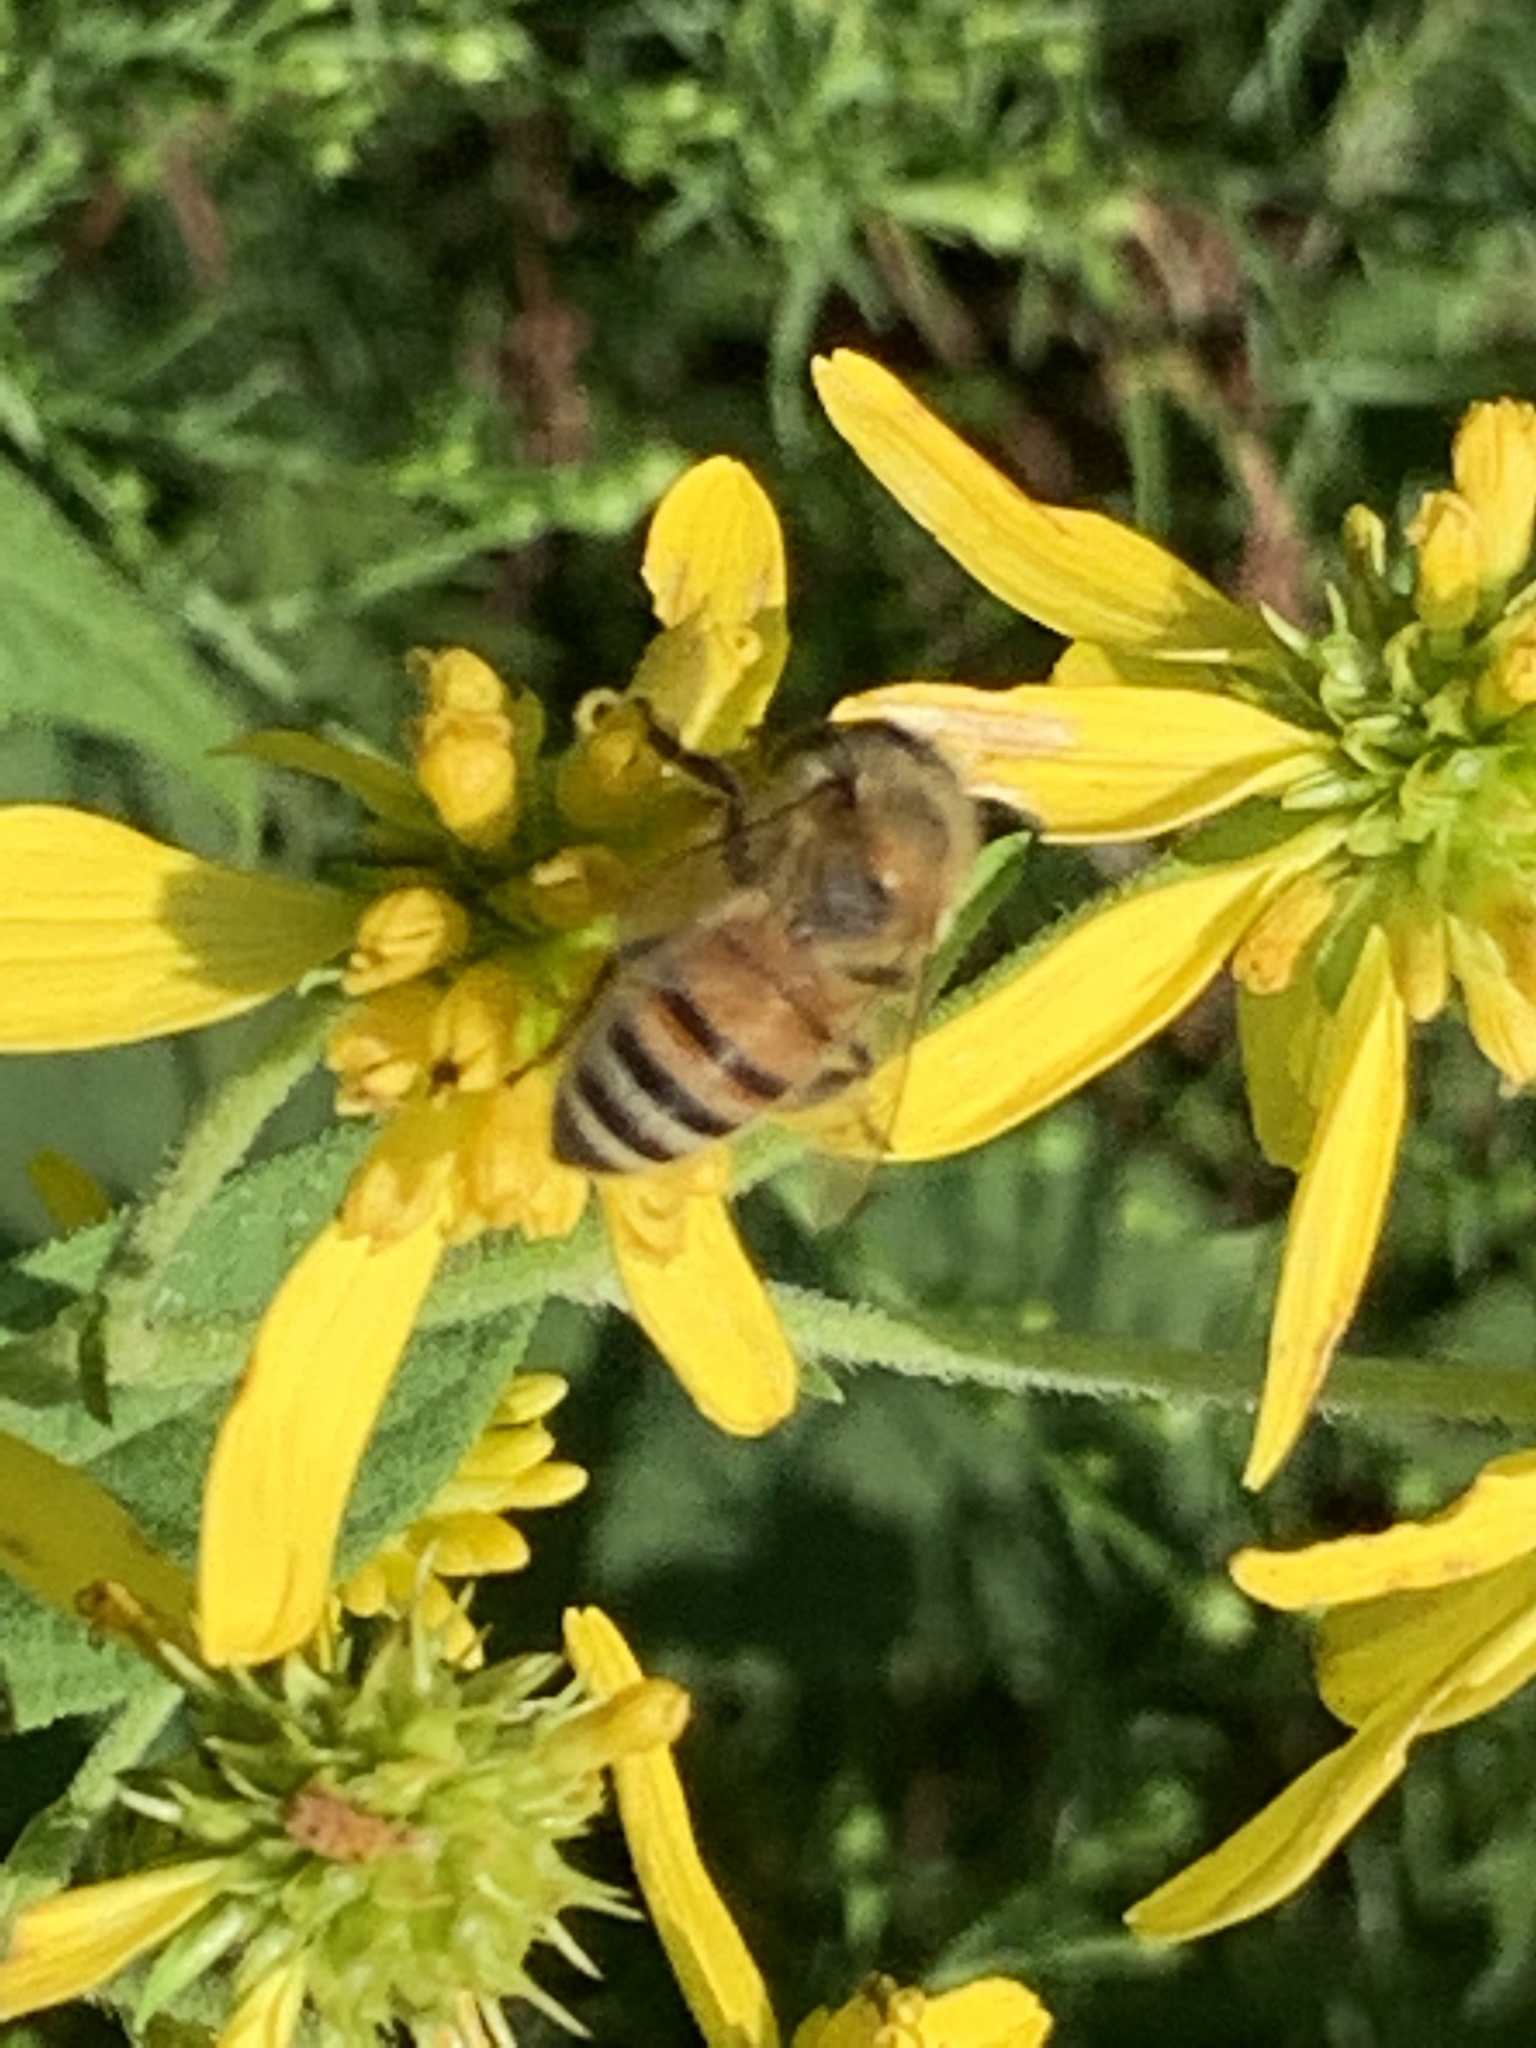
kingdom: Animalia
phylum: Arthropoda
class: Insecta
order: Hymenoptera
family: Apidae
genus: Apis
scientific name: Apis mellifera
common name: Honey bee
